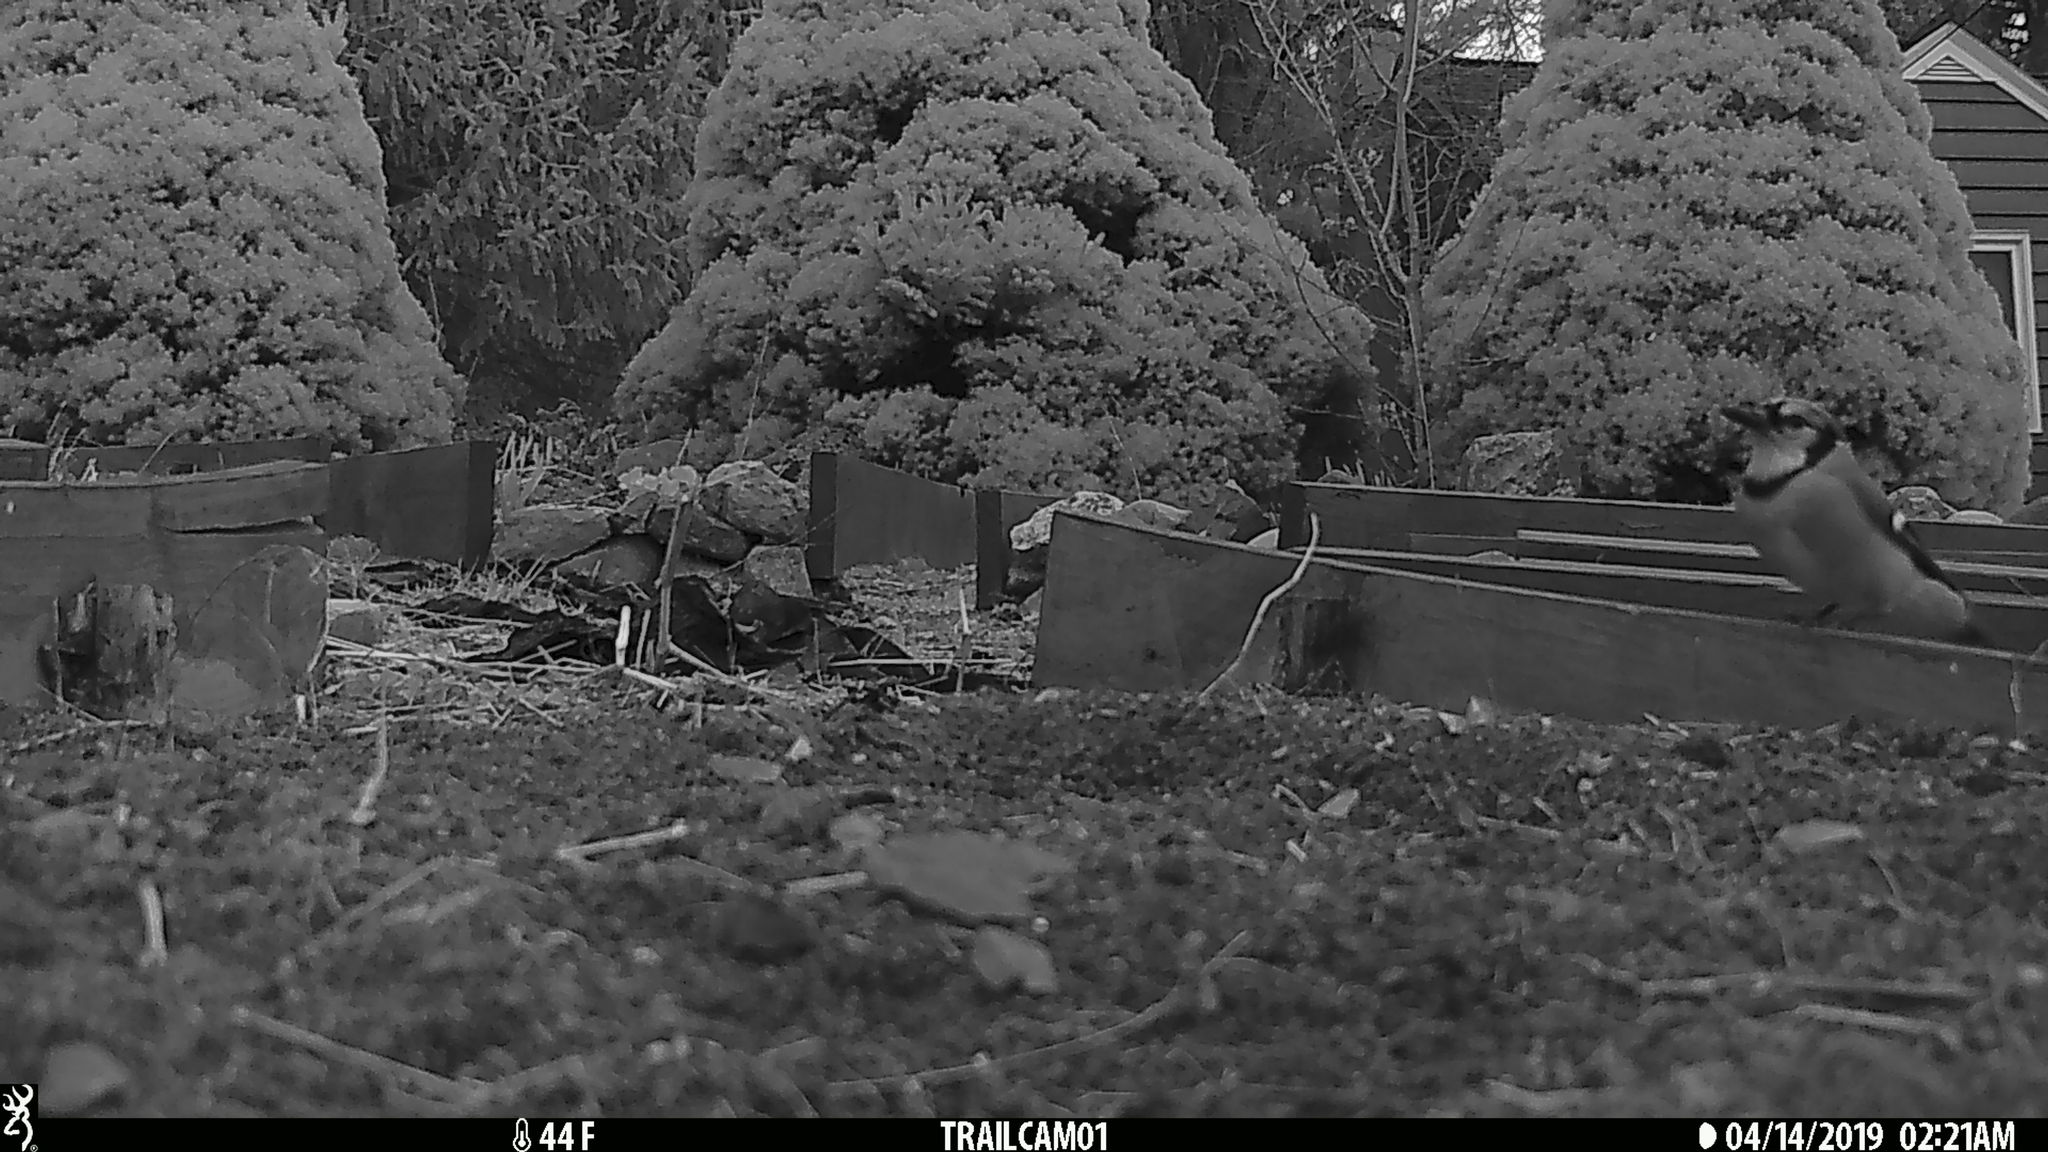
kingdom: Animalia
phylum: Chordata
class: Aves
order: Passeriformes
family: Corvidae
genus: Cyanocitta
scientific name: Cyanocitta cristata
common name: Blue jay
